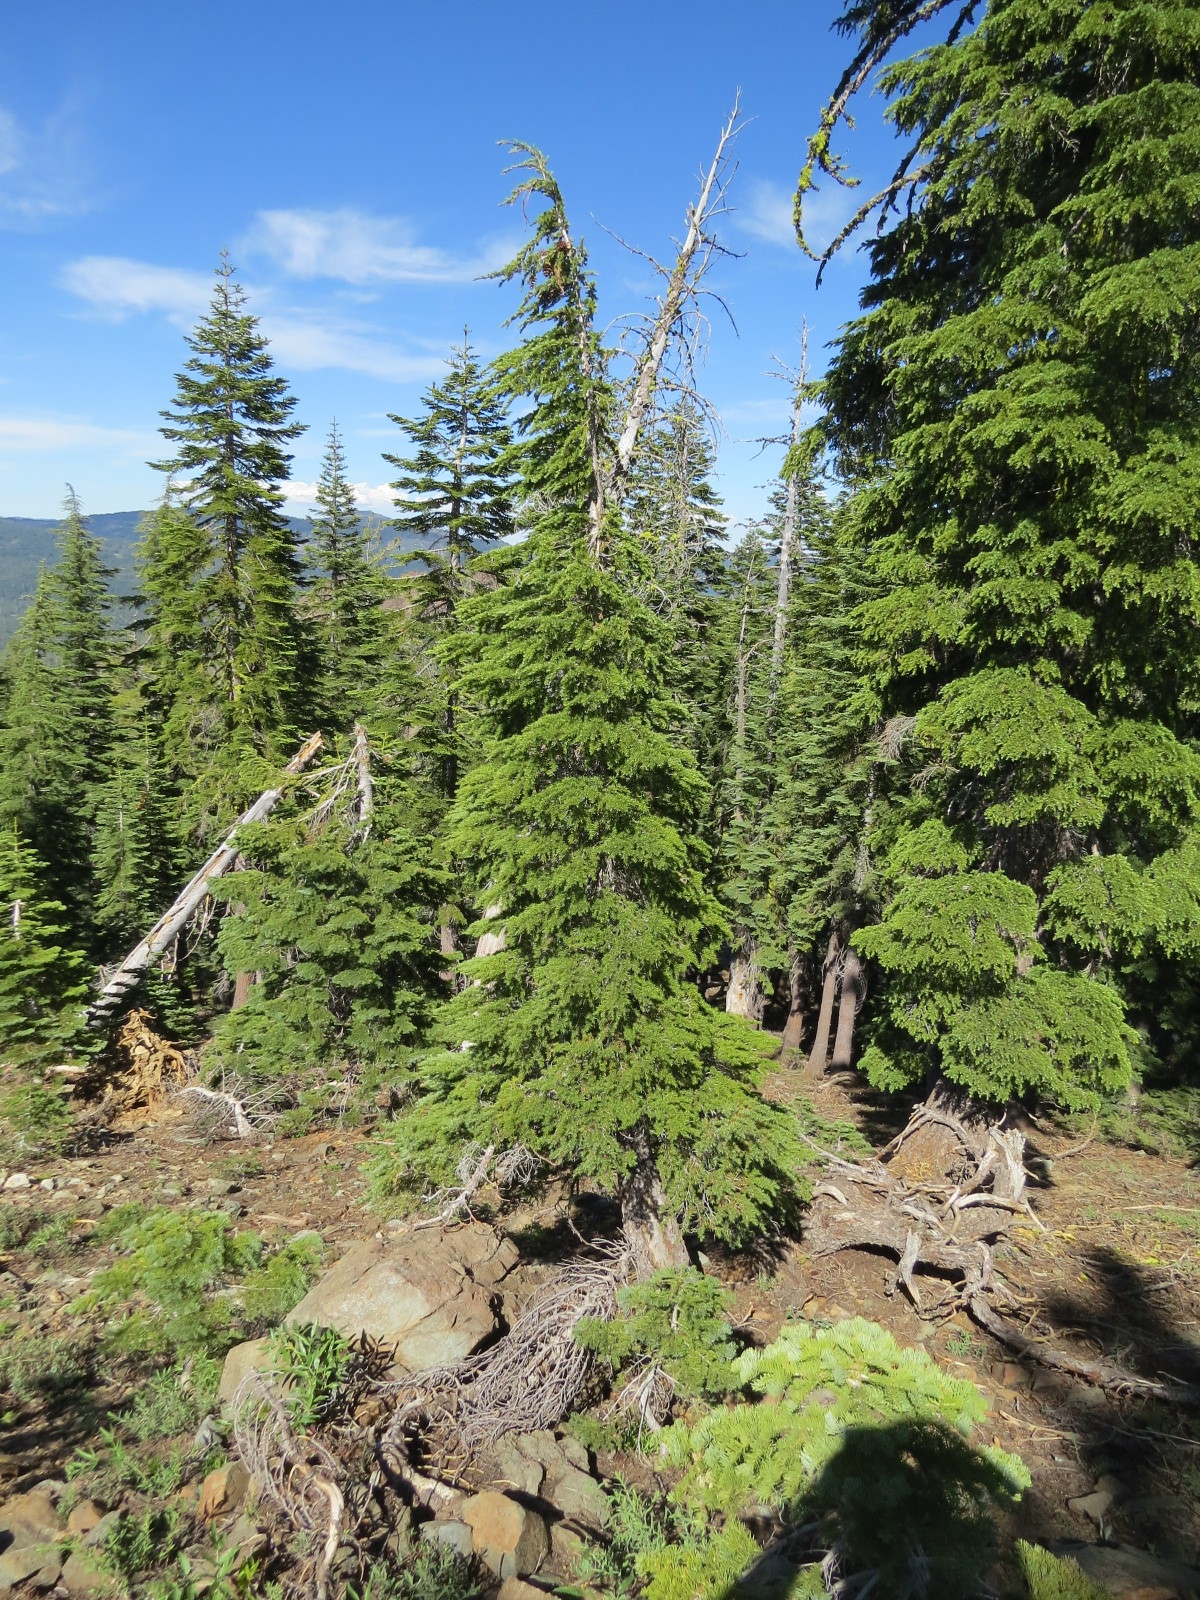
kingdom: Plantae
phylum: Tracheophyta
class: Pinopsida
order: Pinales
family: Pinaceae
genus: Tsuga
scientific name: Tsuga mertensiana
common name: Mountain hemlock
